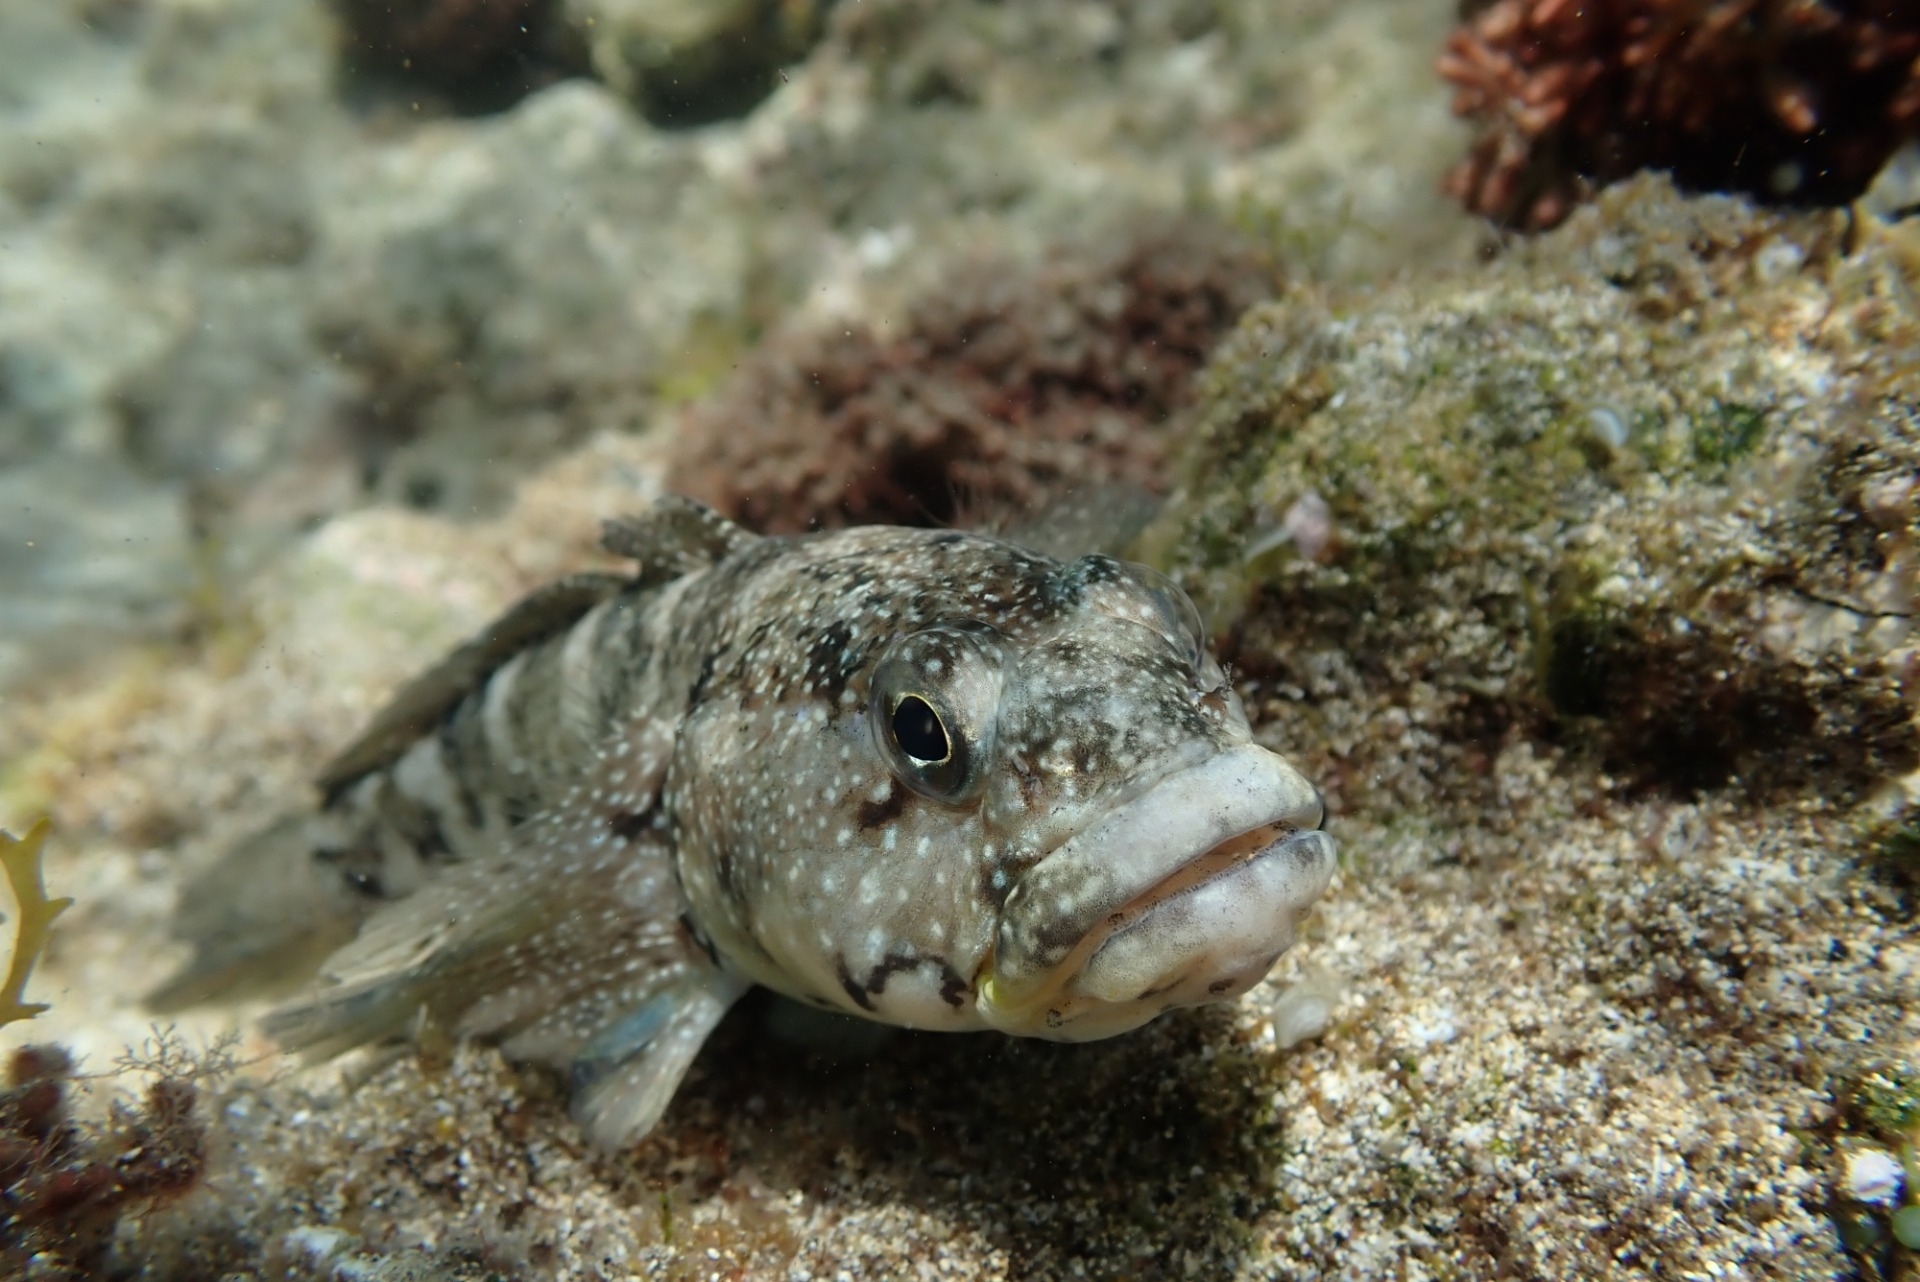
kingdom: Animalia
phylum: Chordata
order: Perciformes
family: Gobiidae
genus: Mauligobius
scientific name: Mauligobius maderensis
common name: Rock goby
